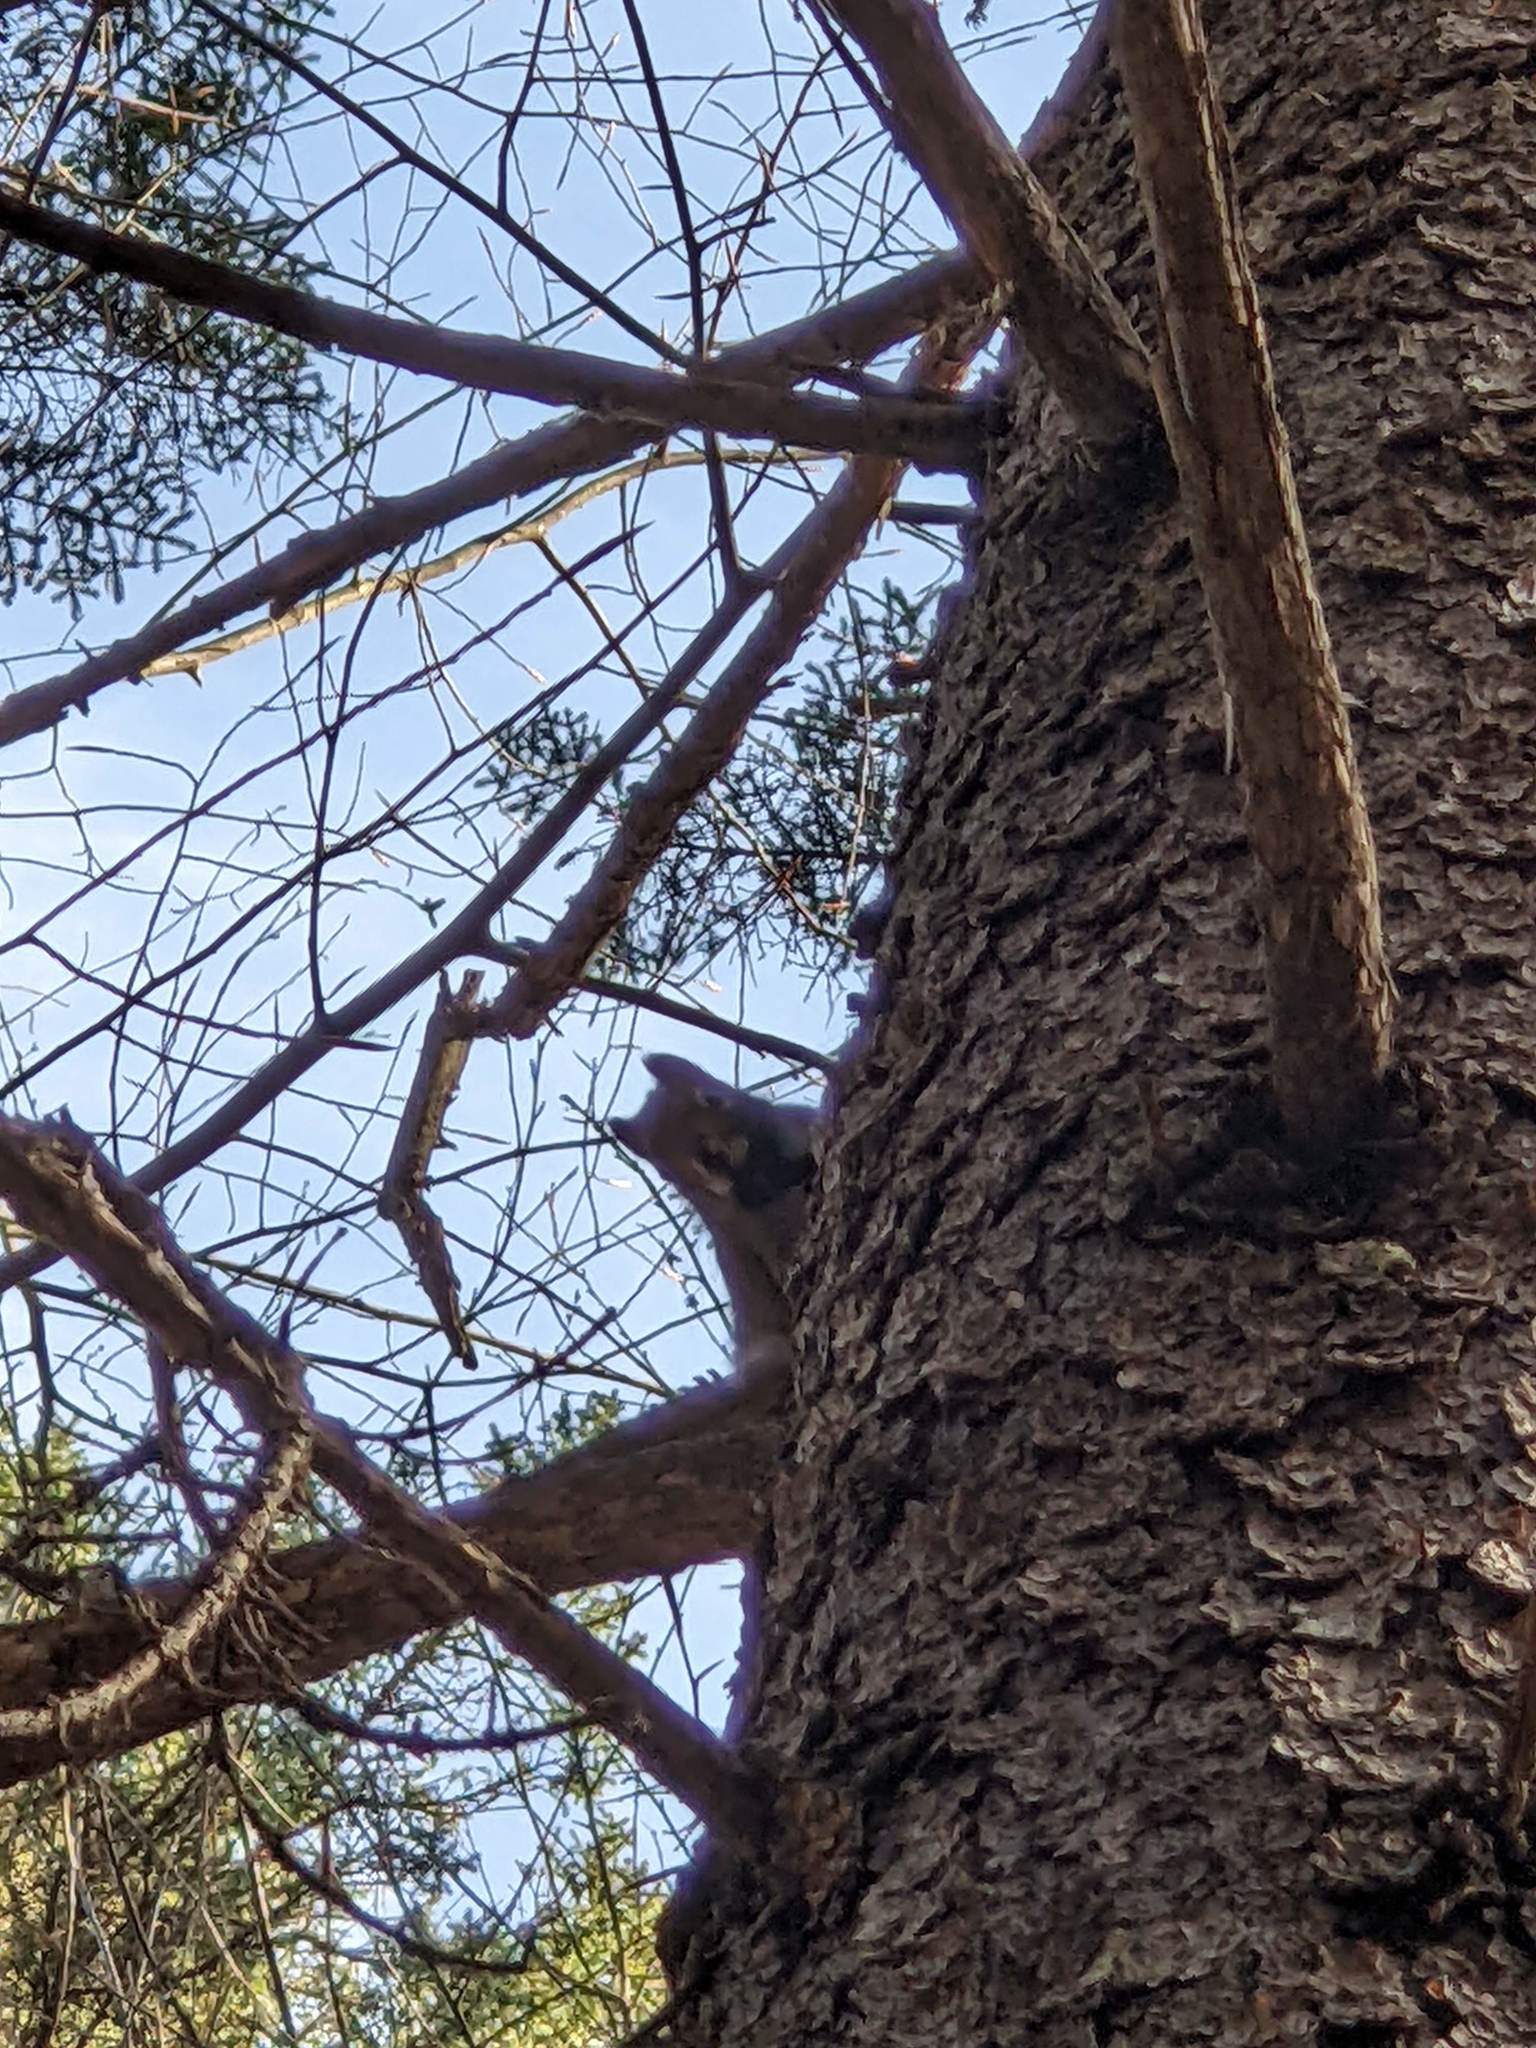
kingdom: Animalia
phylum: Chordata
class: Mammalia
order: Rodentia
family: Sciuridae
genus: Tamiasciurus
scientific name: Tamiasciurus hudsonicus
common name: Red squirrel
